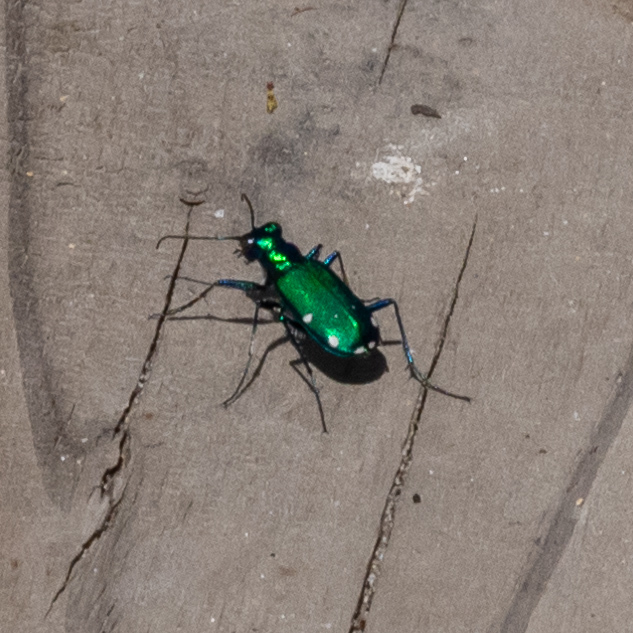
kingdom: Animalia
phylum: Arthropoda
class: Insecta
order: Coleoptera
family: Carabidae
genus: Cicindela
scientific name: Cicindela sexguttata
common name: Six-spotted tiger beetle
